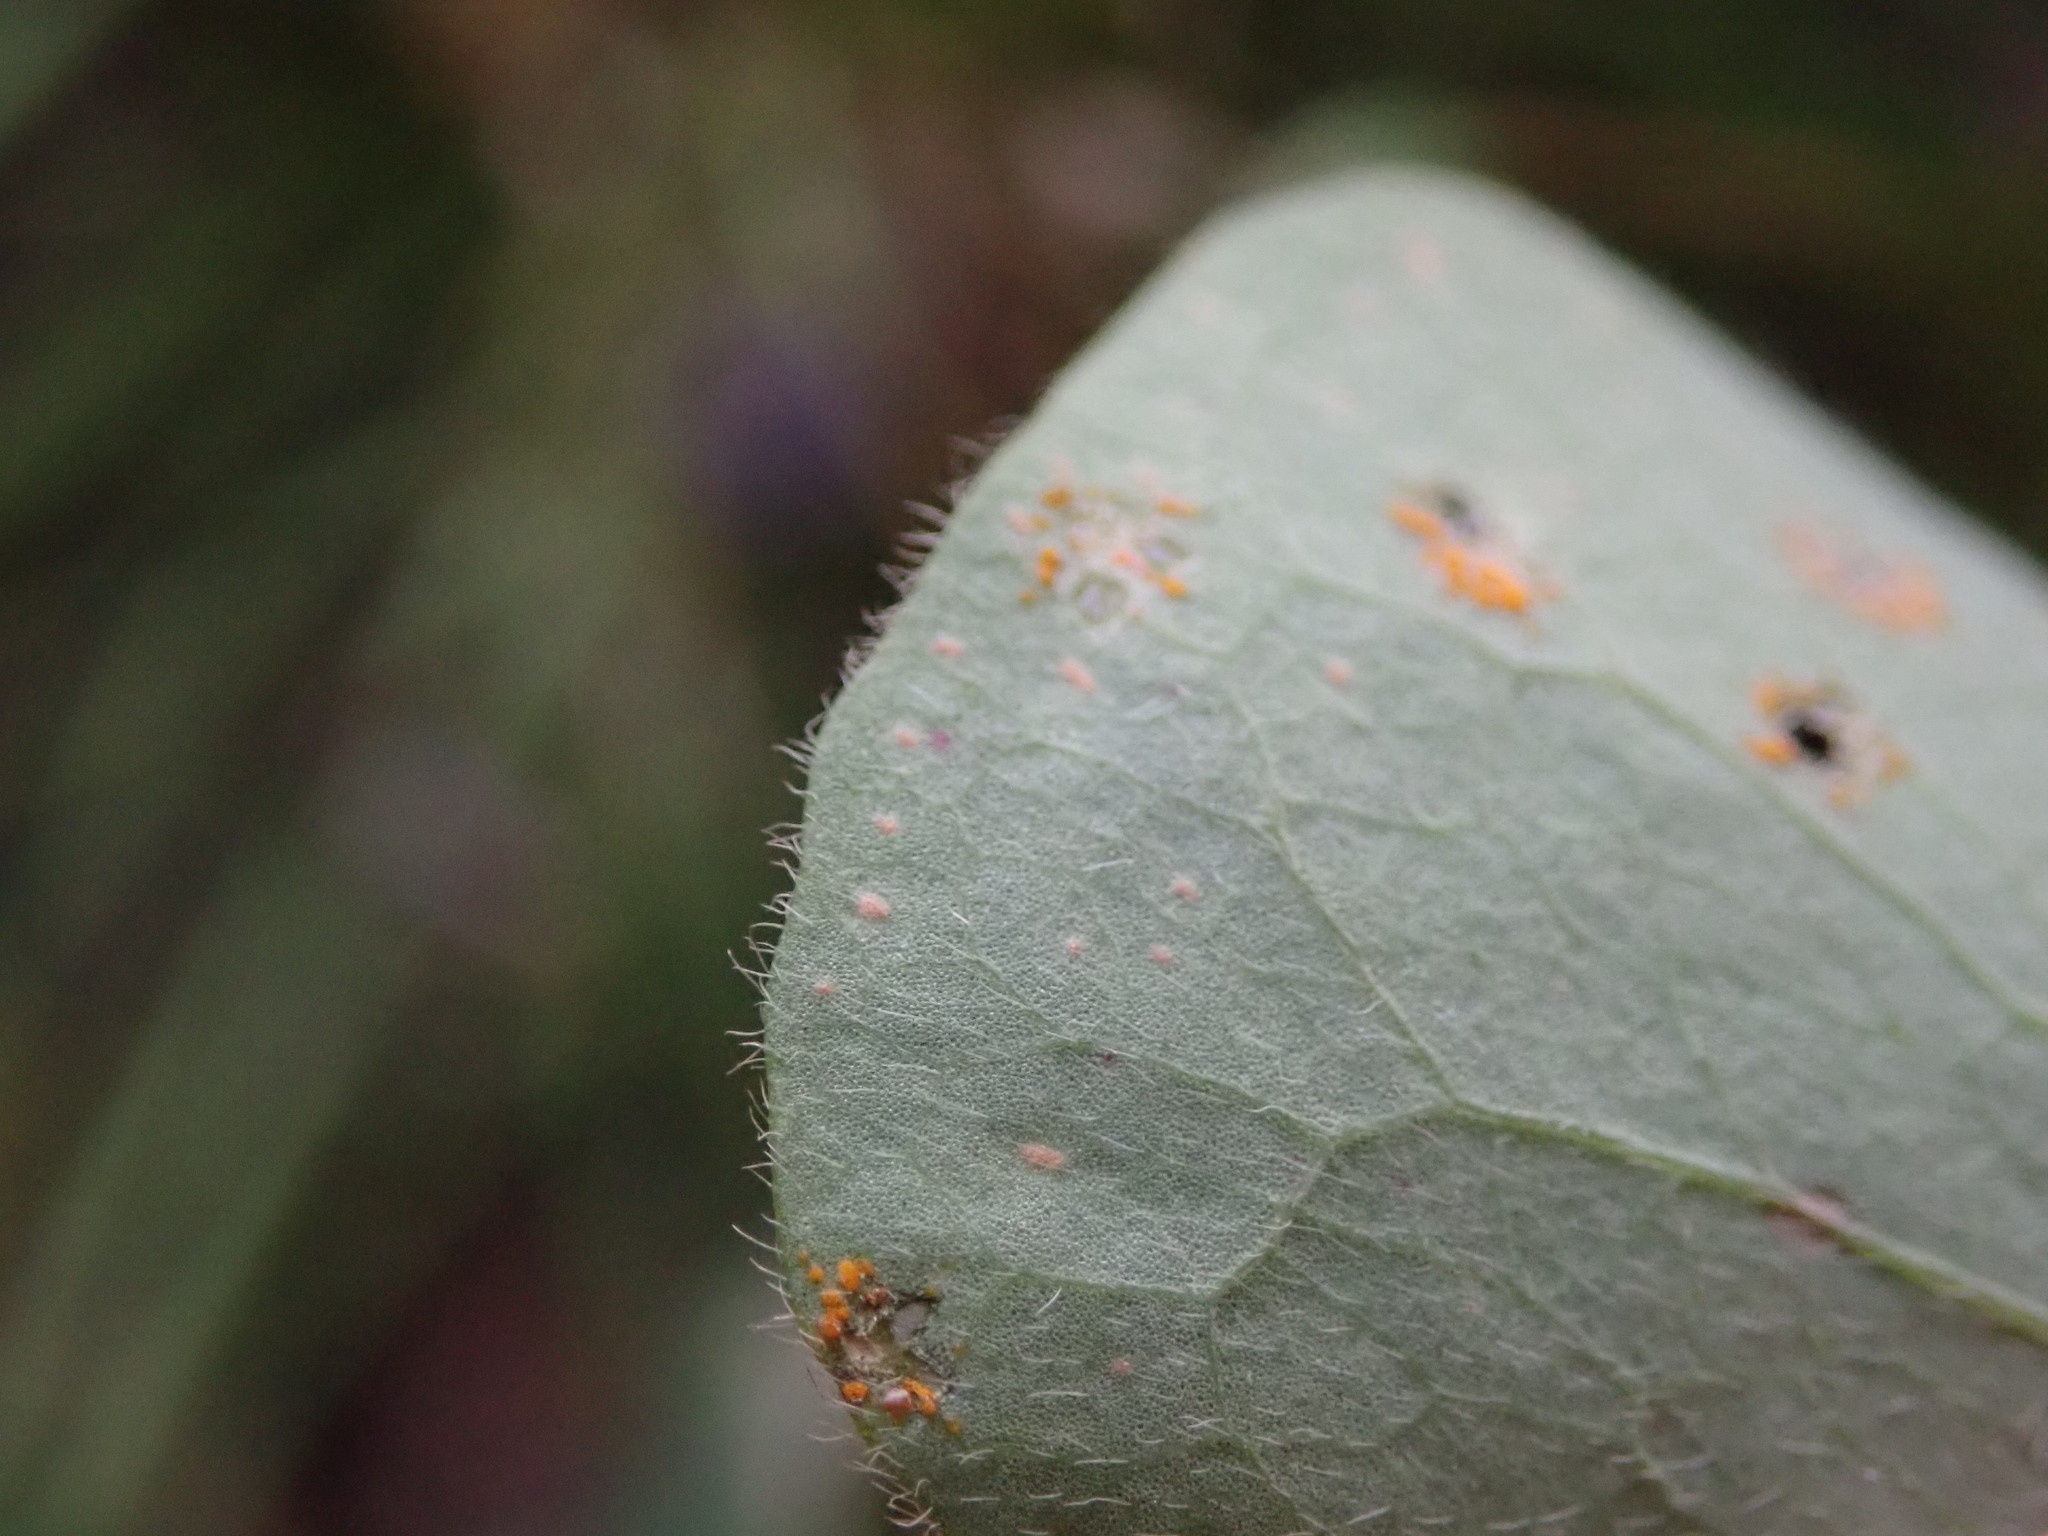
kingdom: Plantae
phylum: Tracheophyta
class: Magnoliopsida
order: Oxalidales
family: Oxalidaceae
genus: Oxalis
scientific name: Oxalis articulata
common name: Pink-sorrel
